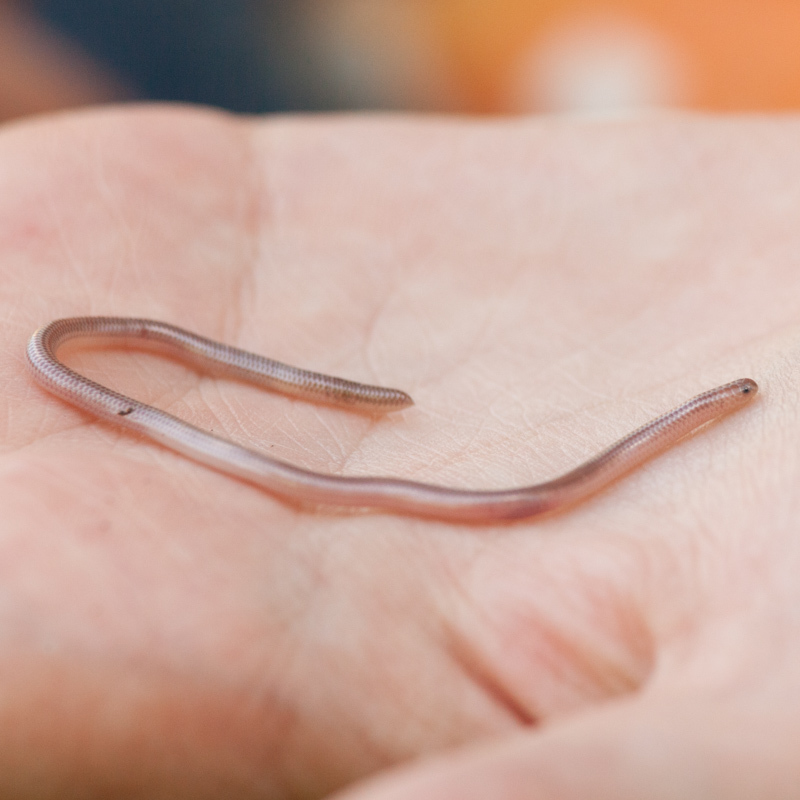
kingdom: Animalia
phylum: Chordata
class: Squamata
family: Leptotyphlopidae
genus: Rena
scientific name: Rena dulcis
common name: Texas blind snake
